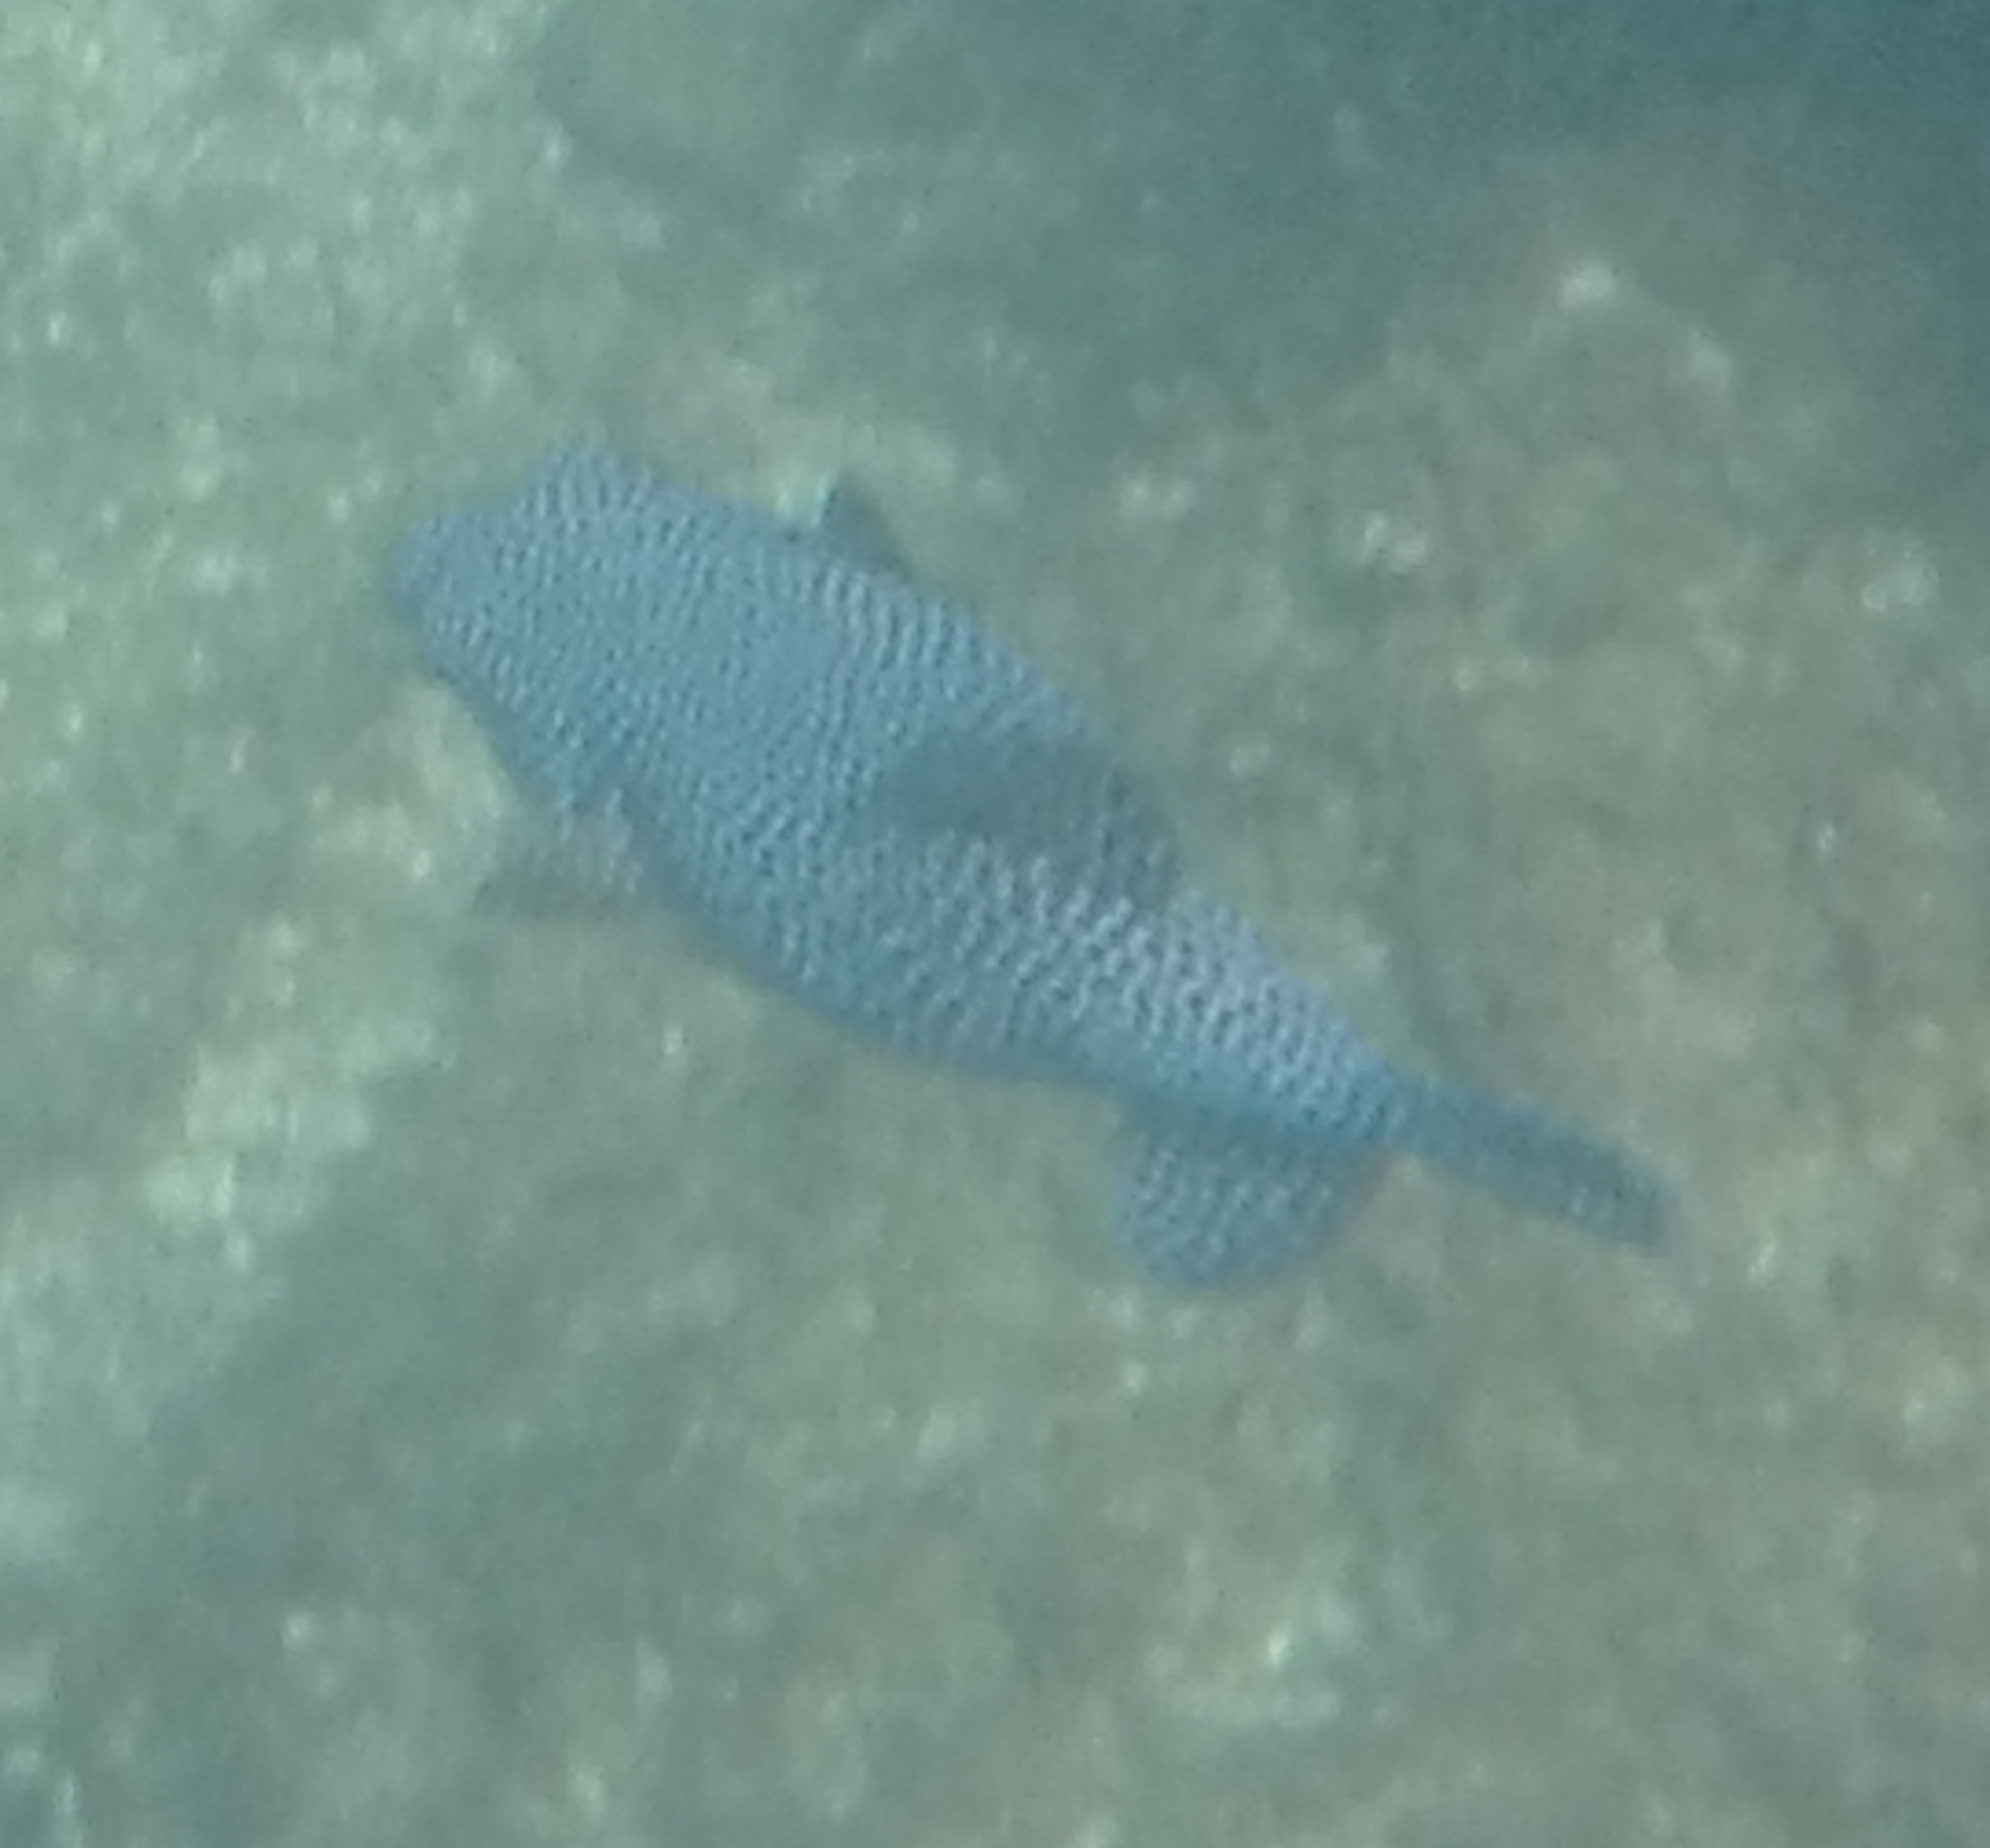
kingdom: Animalia
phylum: Chordata
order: Tetraodontiformes
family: Tetraodontidae
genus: Arothron
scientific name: Arothron meleagris
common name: Guinea-fowl pufferfish
